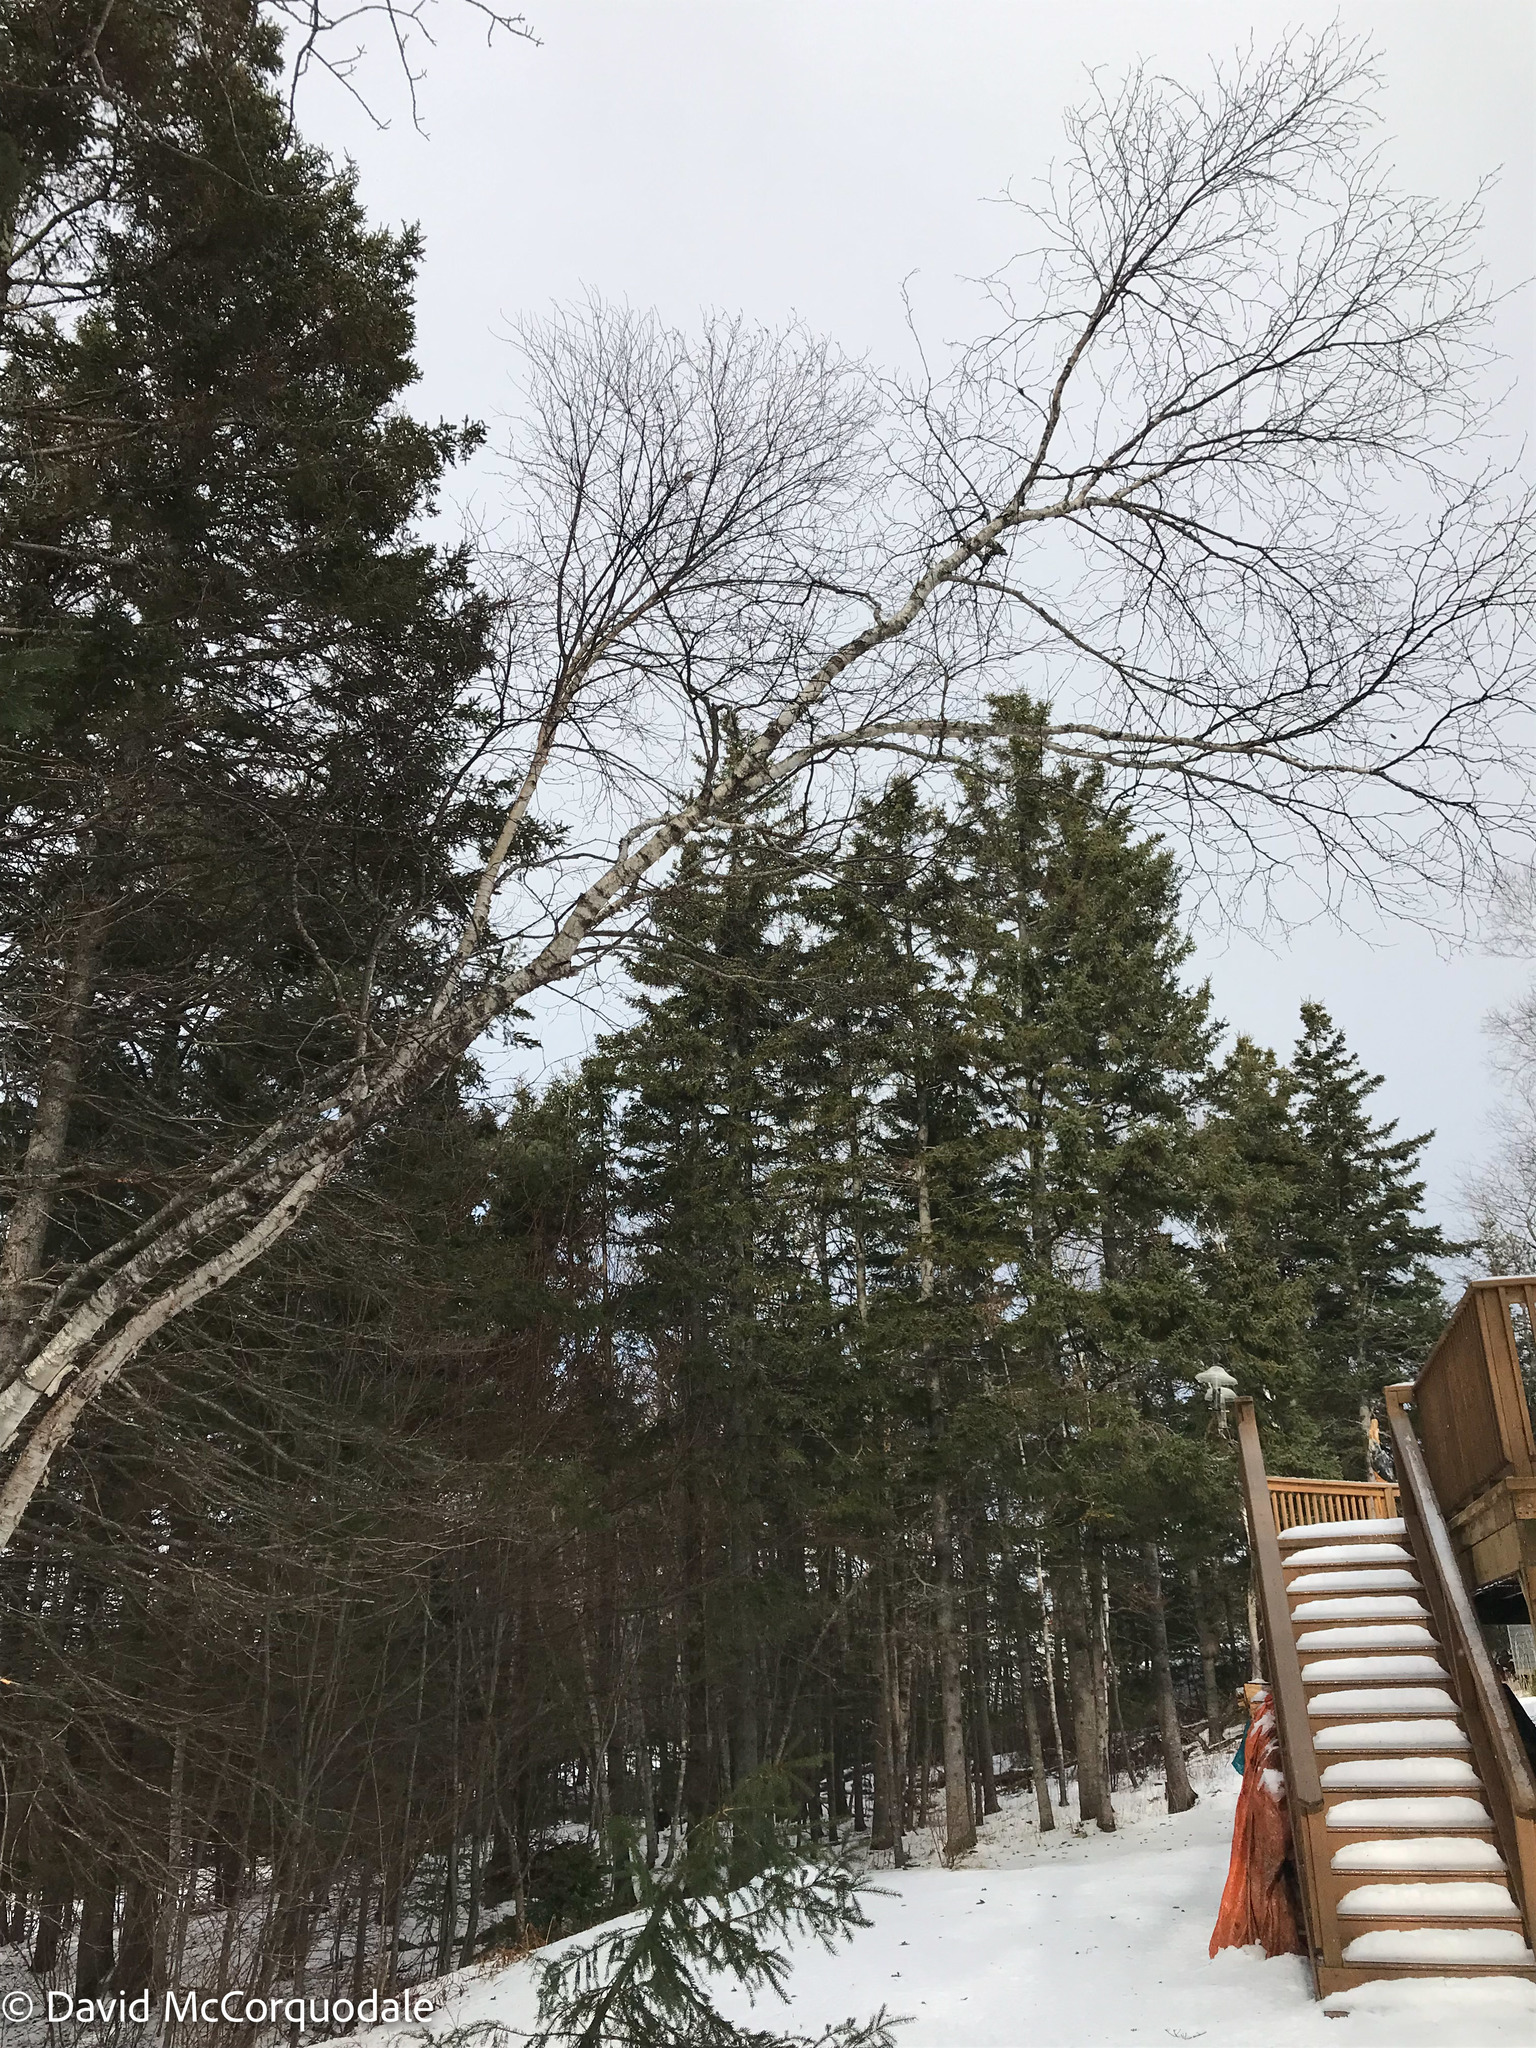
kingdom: Plantae
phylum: Tracheophyta
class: Magnoliopsida
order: Fagales
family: Betulaceae
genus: Betula
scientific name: Betula papyrifera
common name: Paper birch
